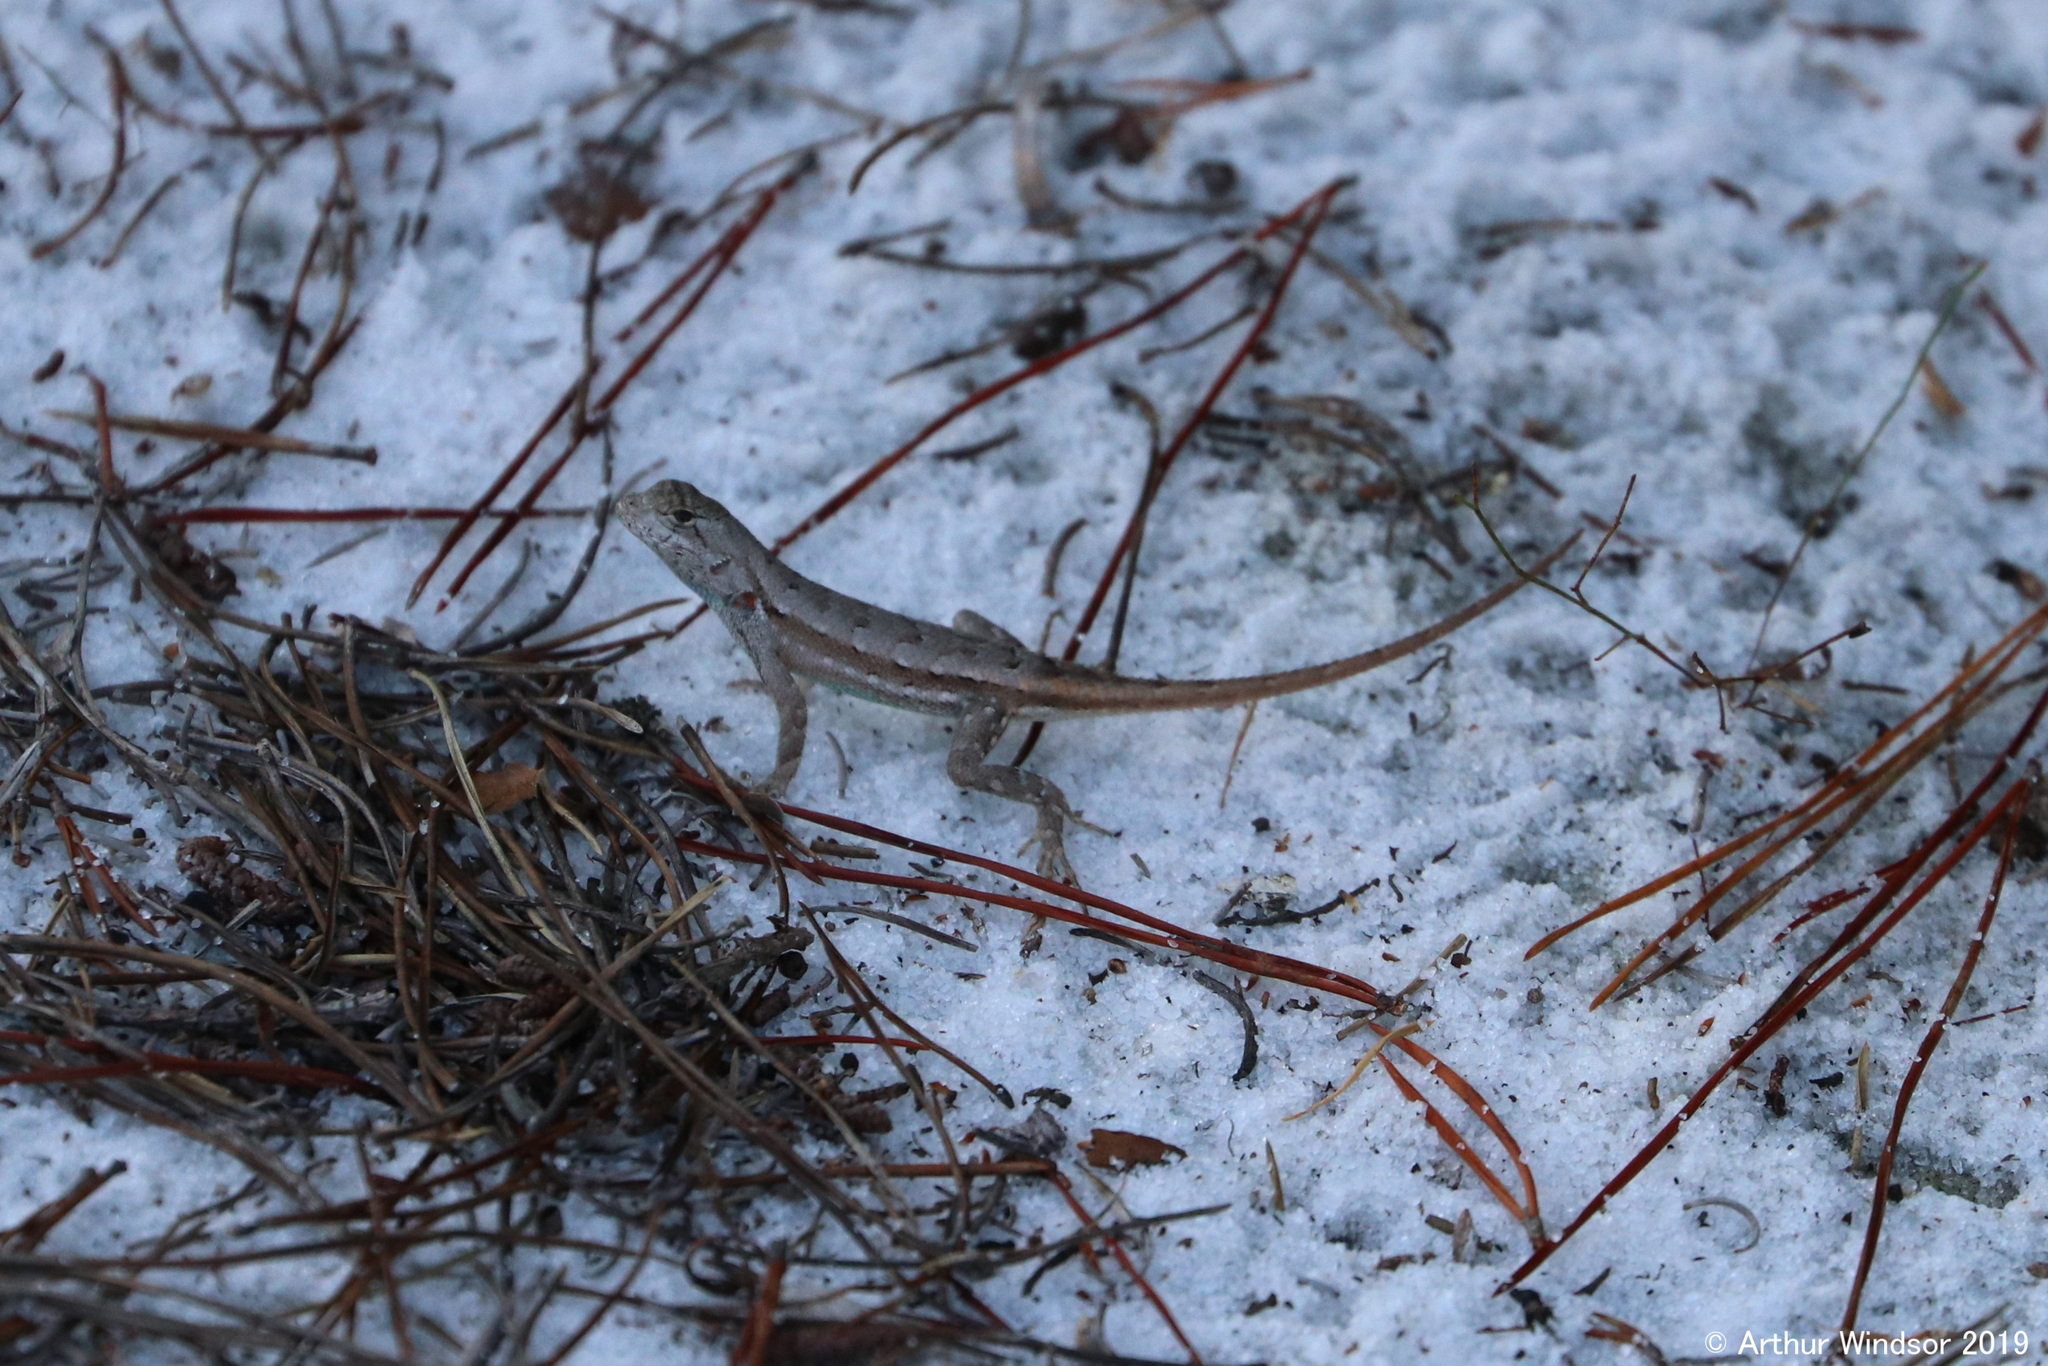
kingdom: Animalia
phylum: Chordata
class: Squamata
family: Phrynosomatidae
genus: Sceloporus
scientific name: Sceloporus woodi
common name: Florida scrub lizard
